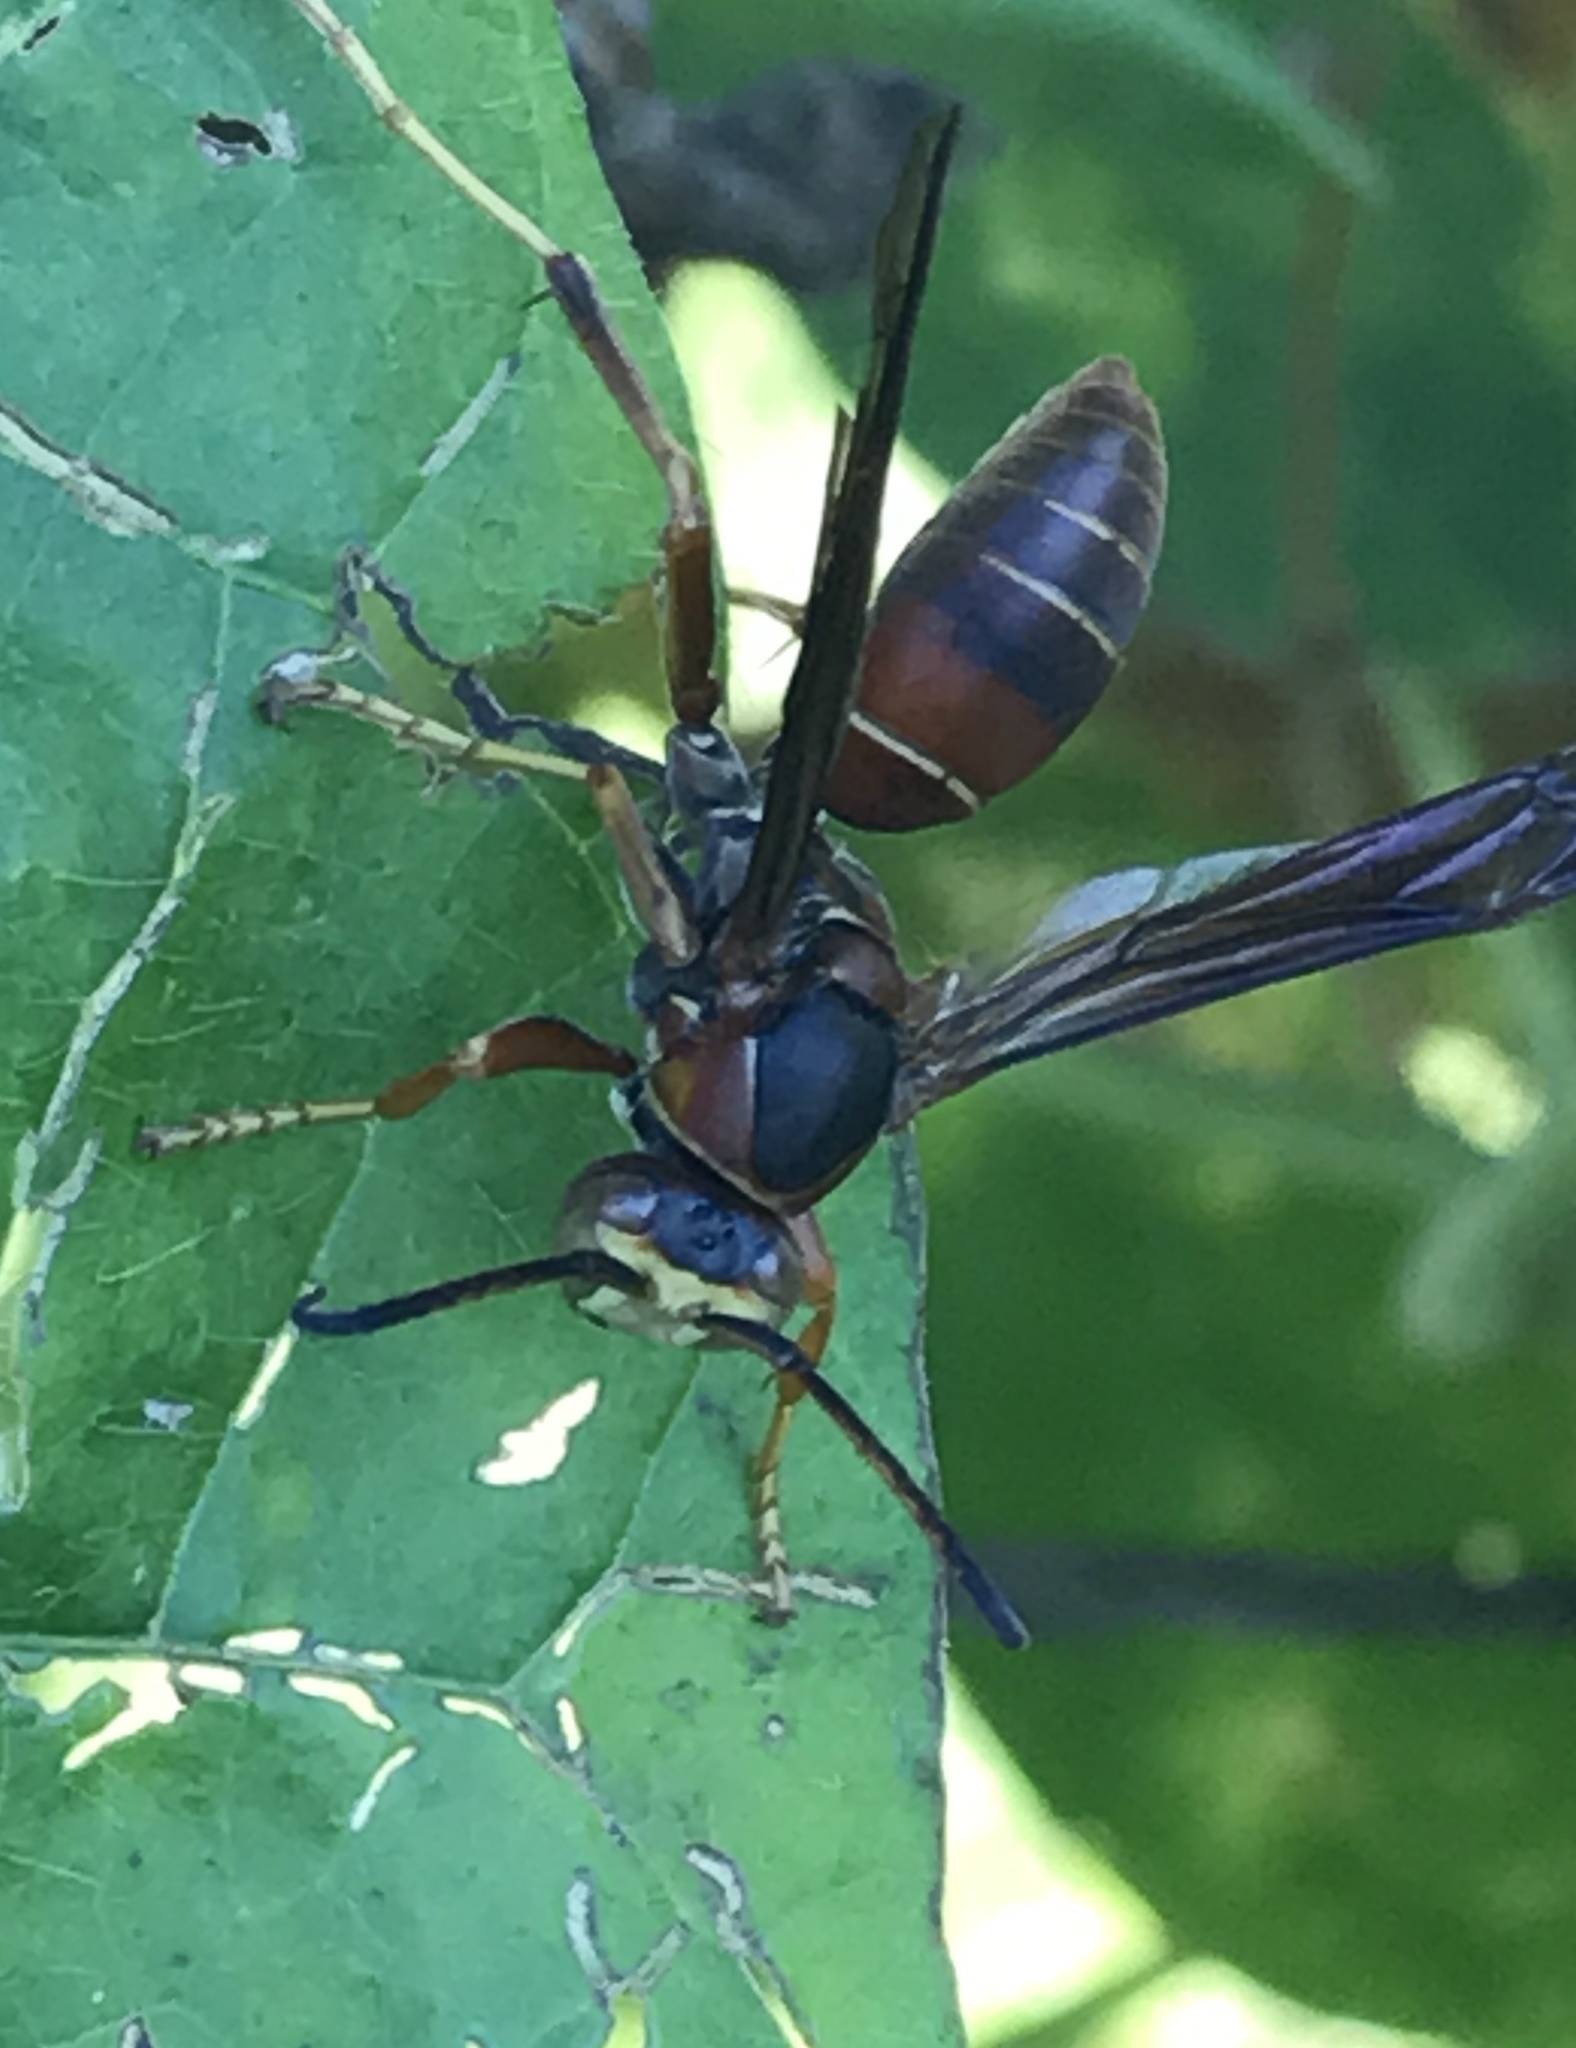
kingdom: Animalia
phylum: Arthropoda
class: Insecta
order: Hymenoptera
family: Eumenidae
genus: Polistes
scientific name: Polistes fuscatus
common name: Dark paper wasp
